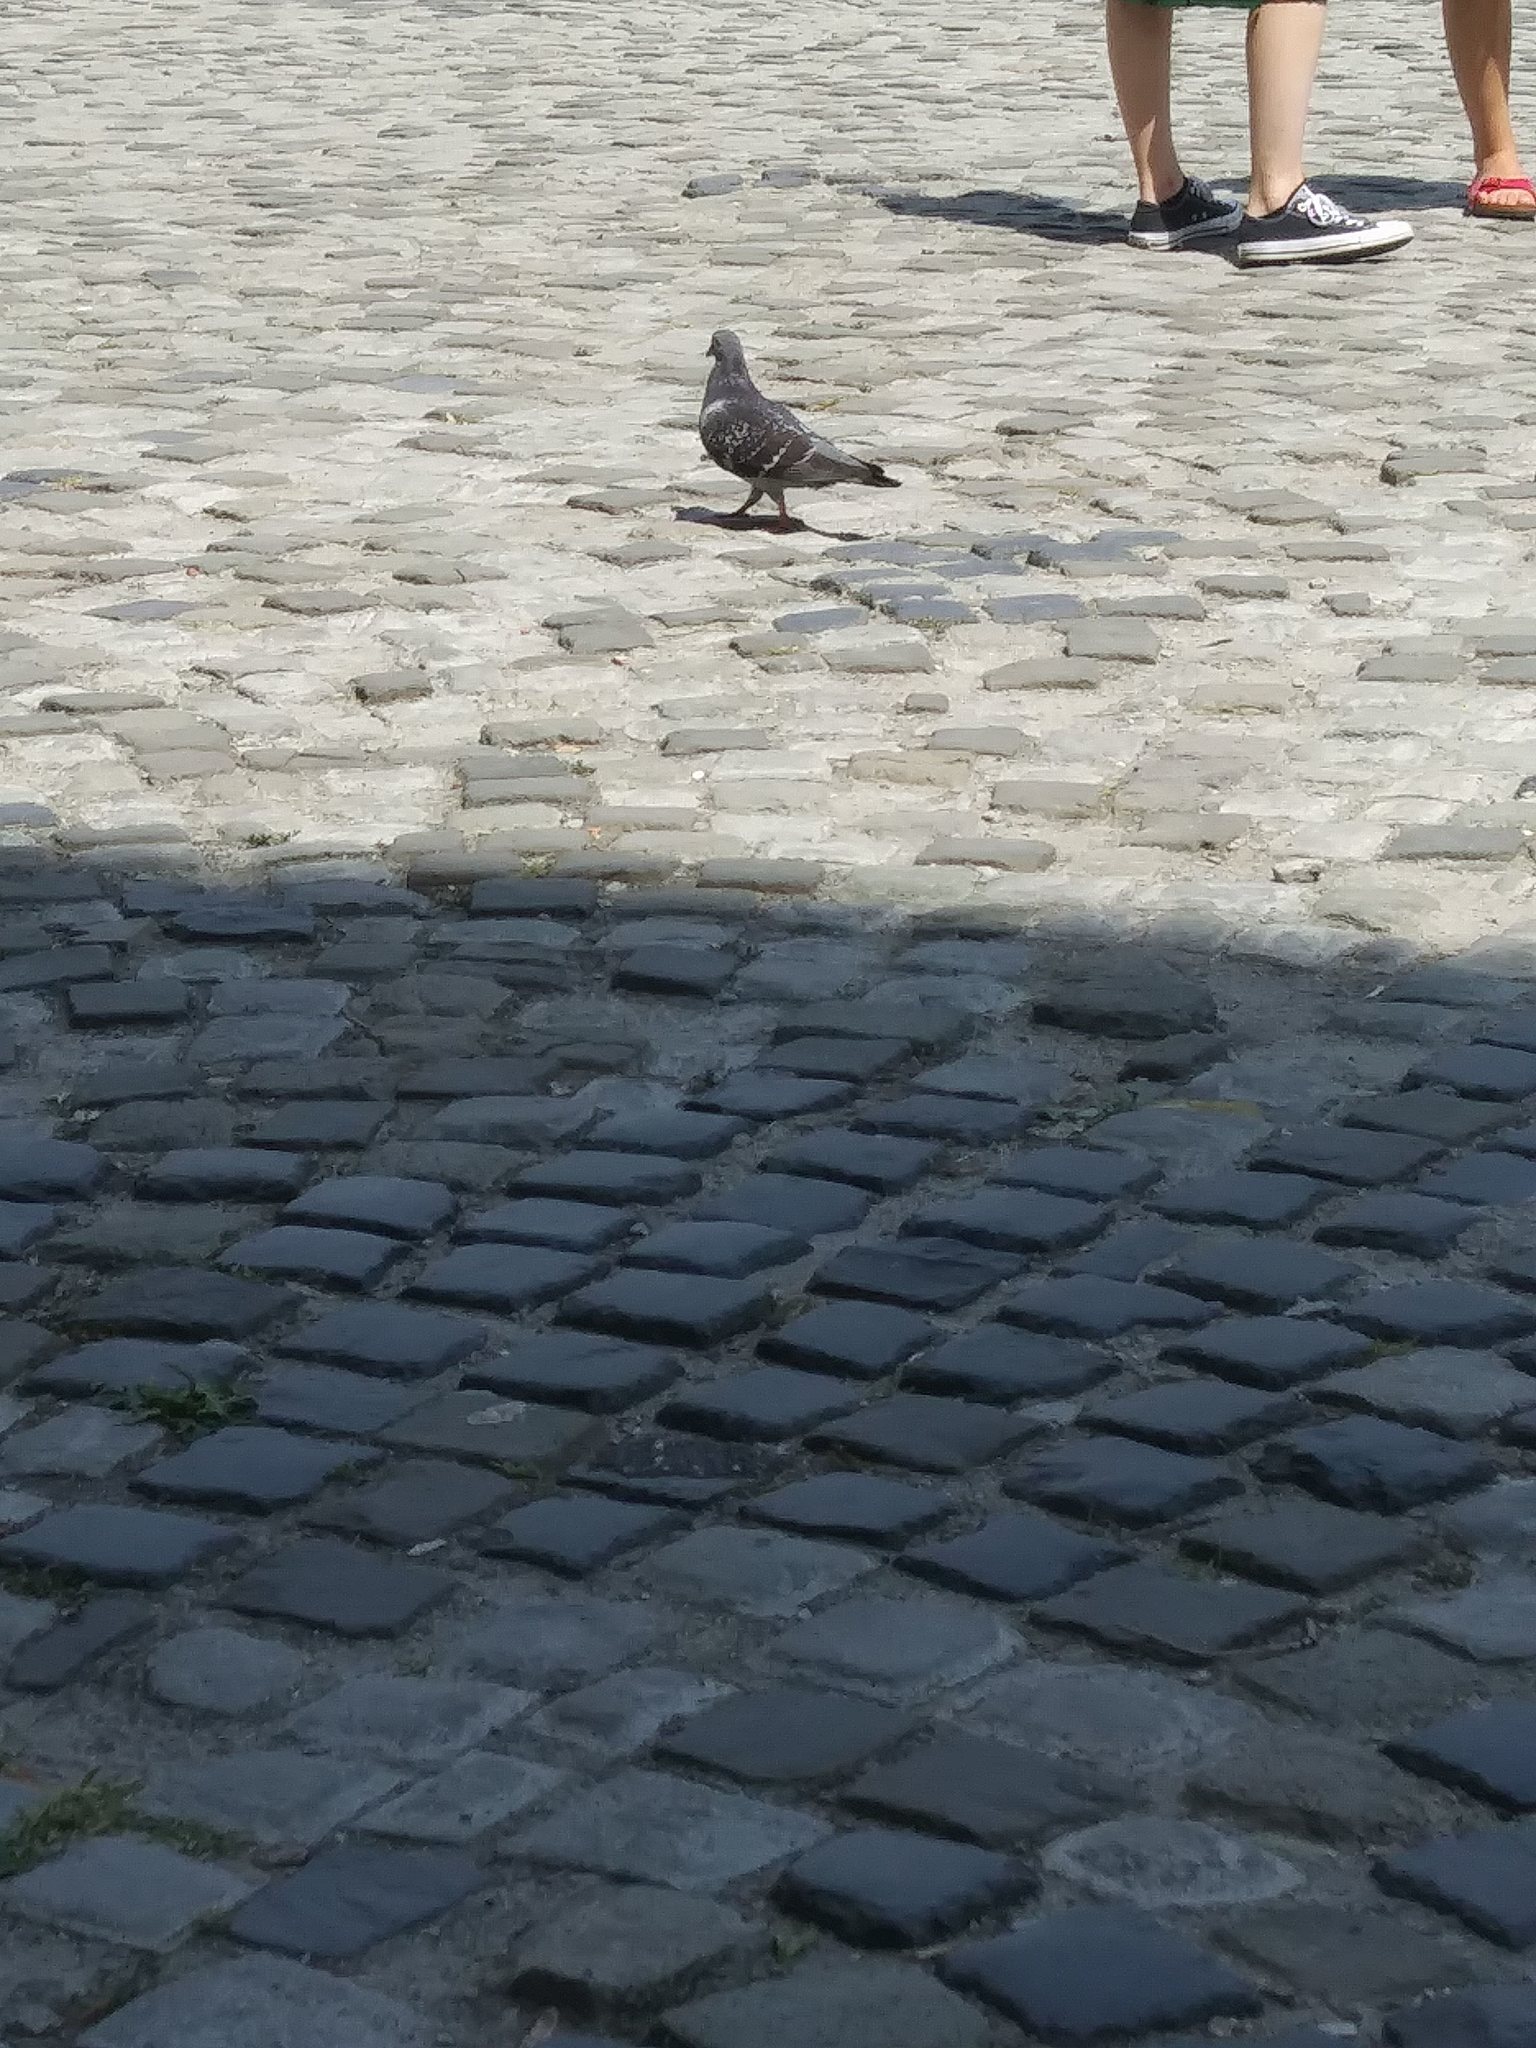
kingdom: Animalia
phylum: Chordata
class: Aves
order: Columbiformes
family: Columbidae
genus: Columba
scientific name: Columba livia
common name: Rock pigeon
